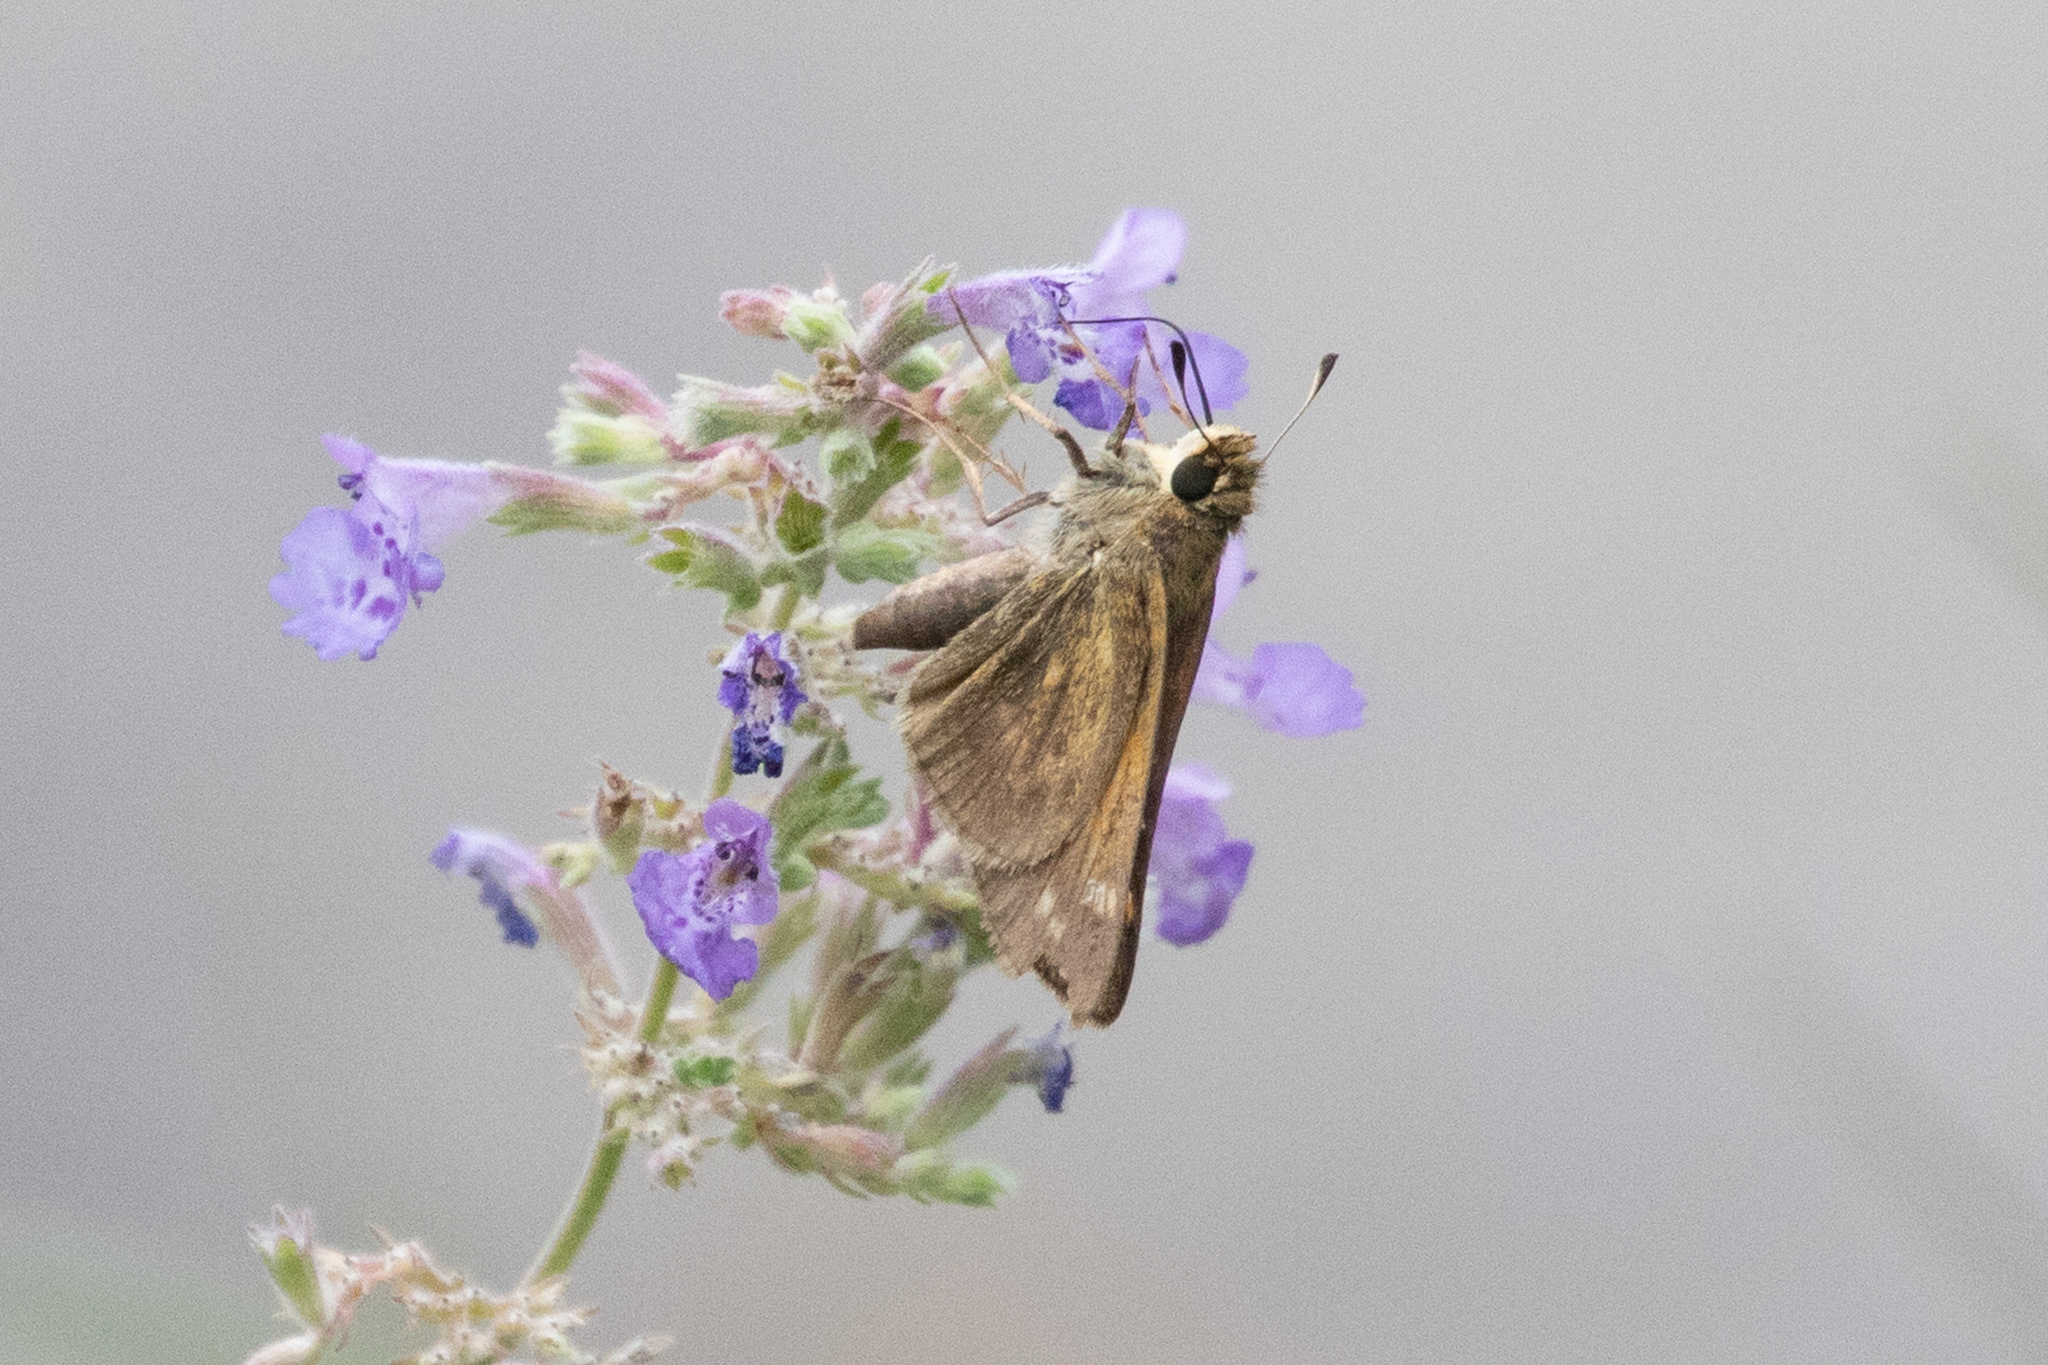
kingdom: Animalia
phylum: Arthropoda
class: Insecta
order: Lepidoptera
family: Hesperiidae
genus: Atalopedes
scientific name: Atalopedes
